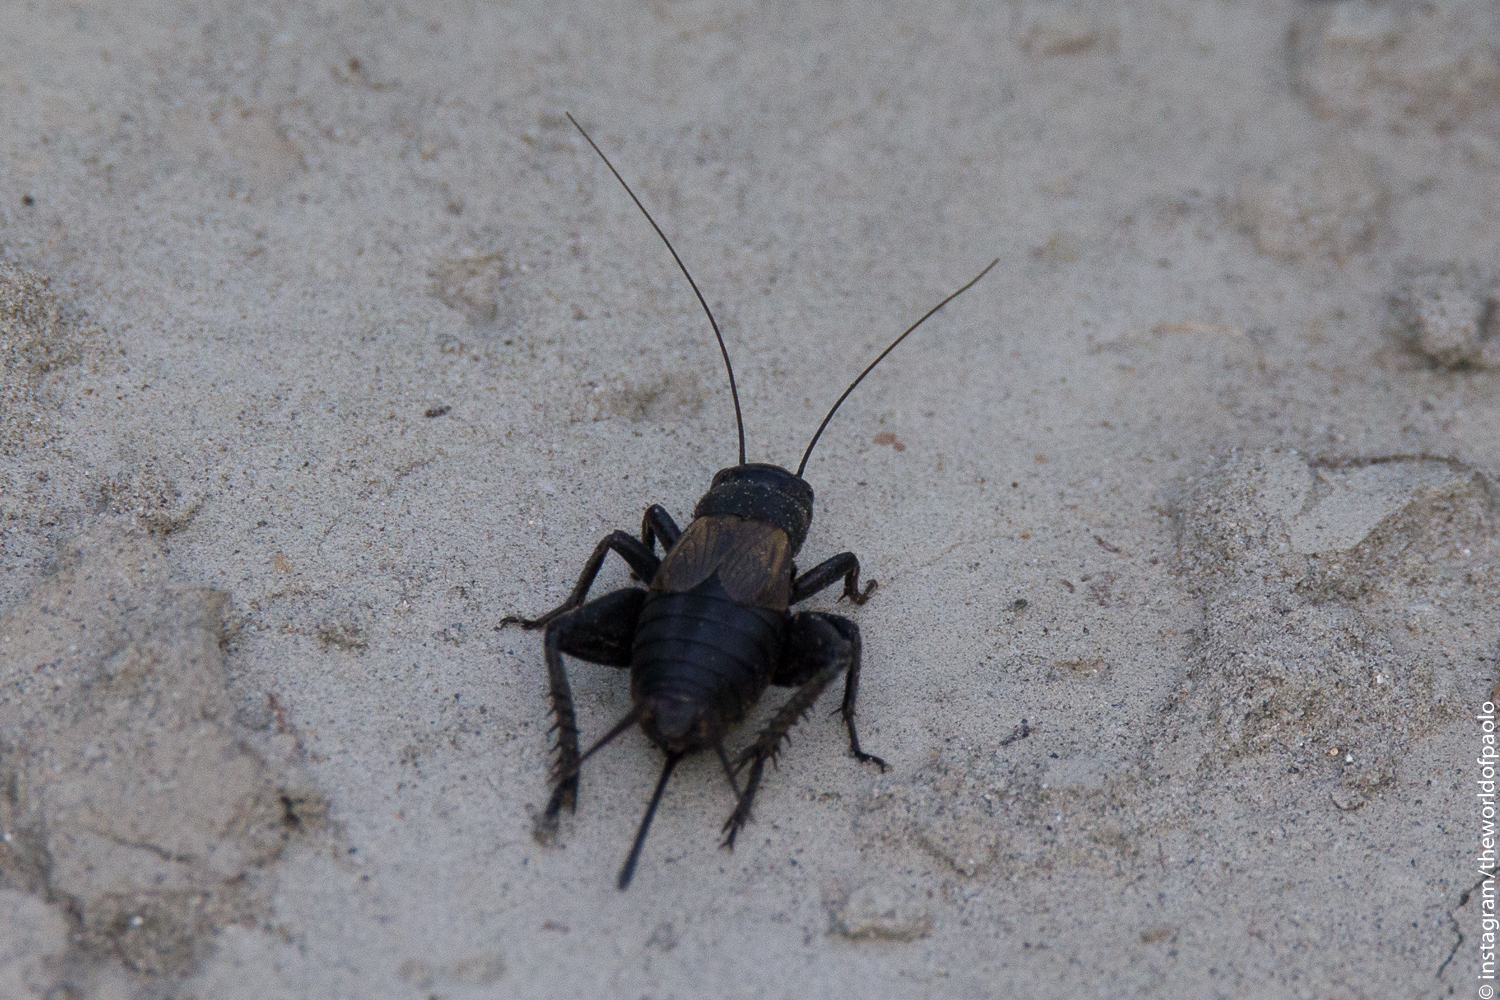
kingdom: Animalia
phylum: Arthropoda
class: Insecta
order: Orthoptera
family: Gryllidae
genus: Melanogryllus
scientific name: Melanogryllus desertus
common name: Desert cricket
